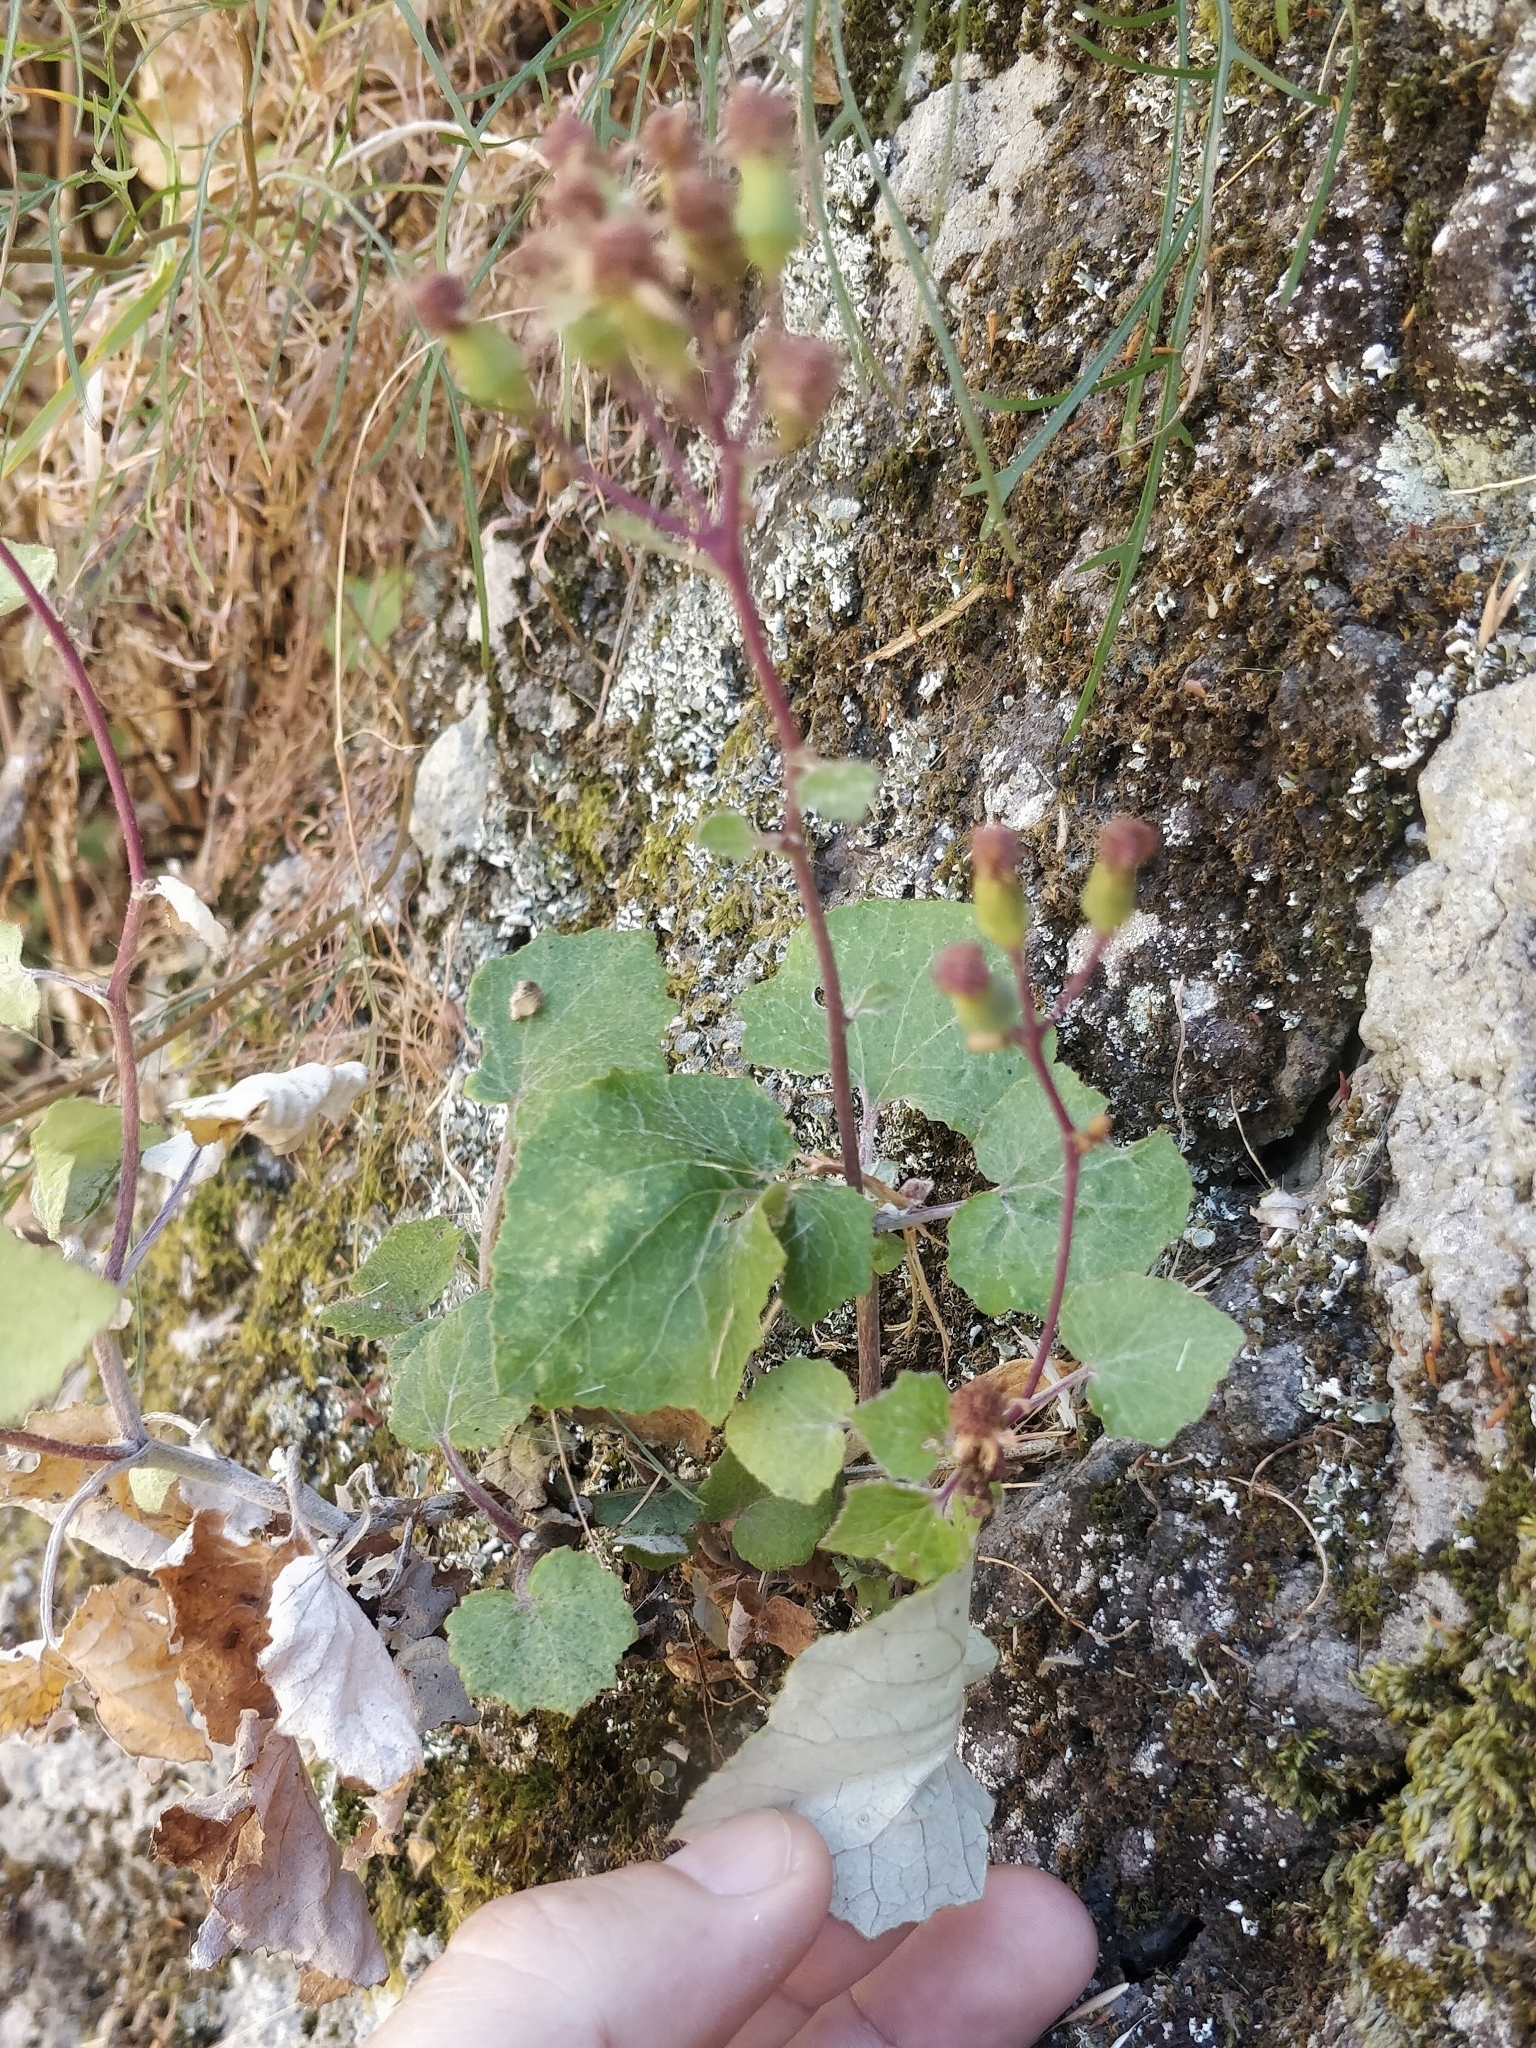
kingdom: Plantae
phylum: Tracheophyta
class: Magnoliopsida
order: Asterales
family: Asteraceae
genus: Pericallis
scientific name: Pericallis aurita
